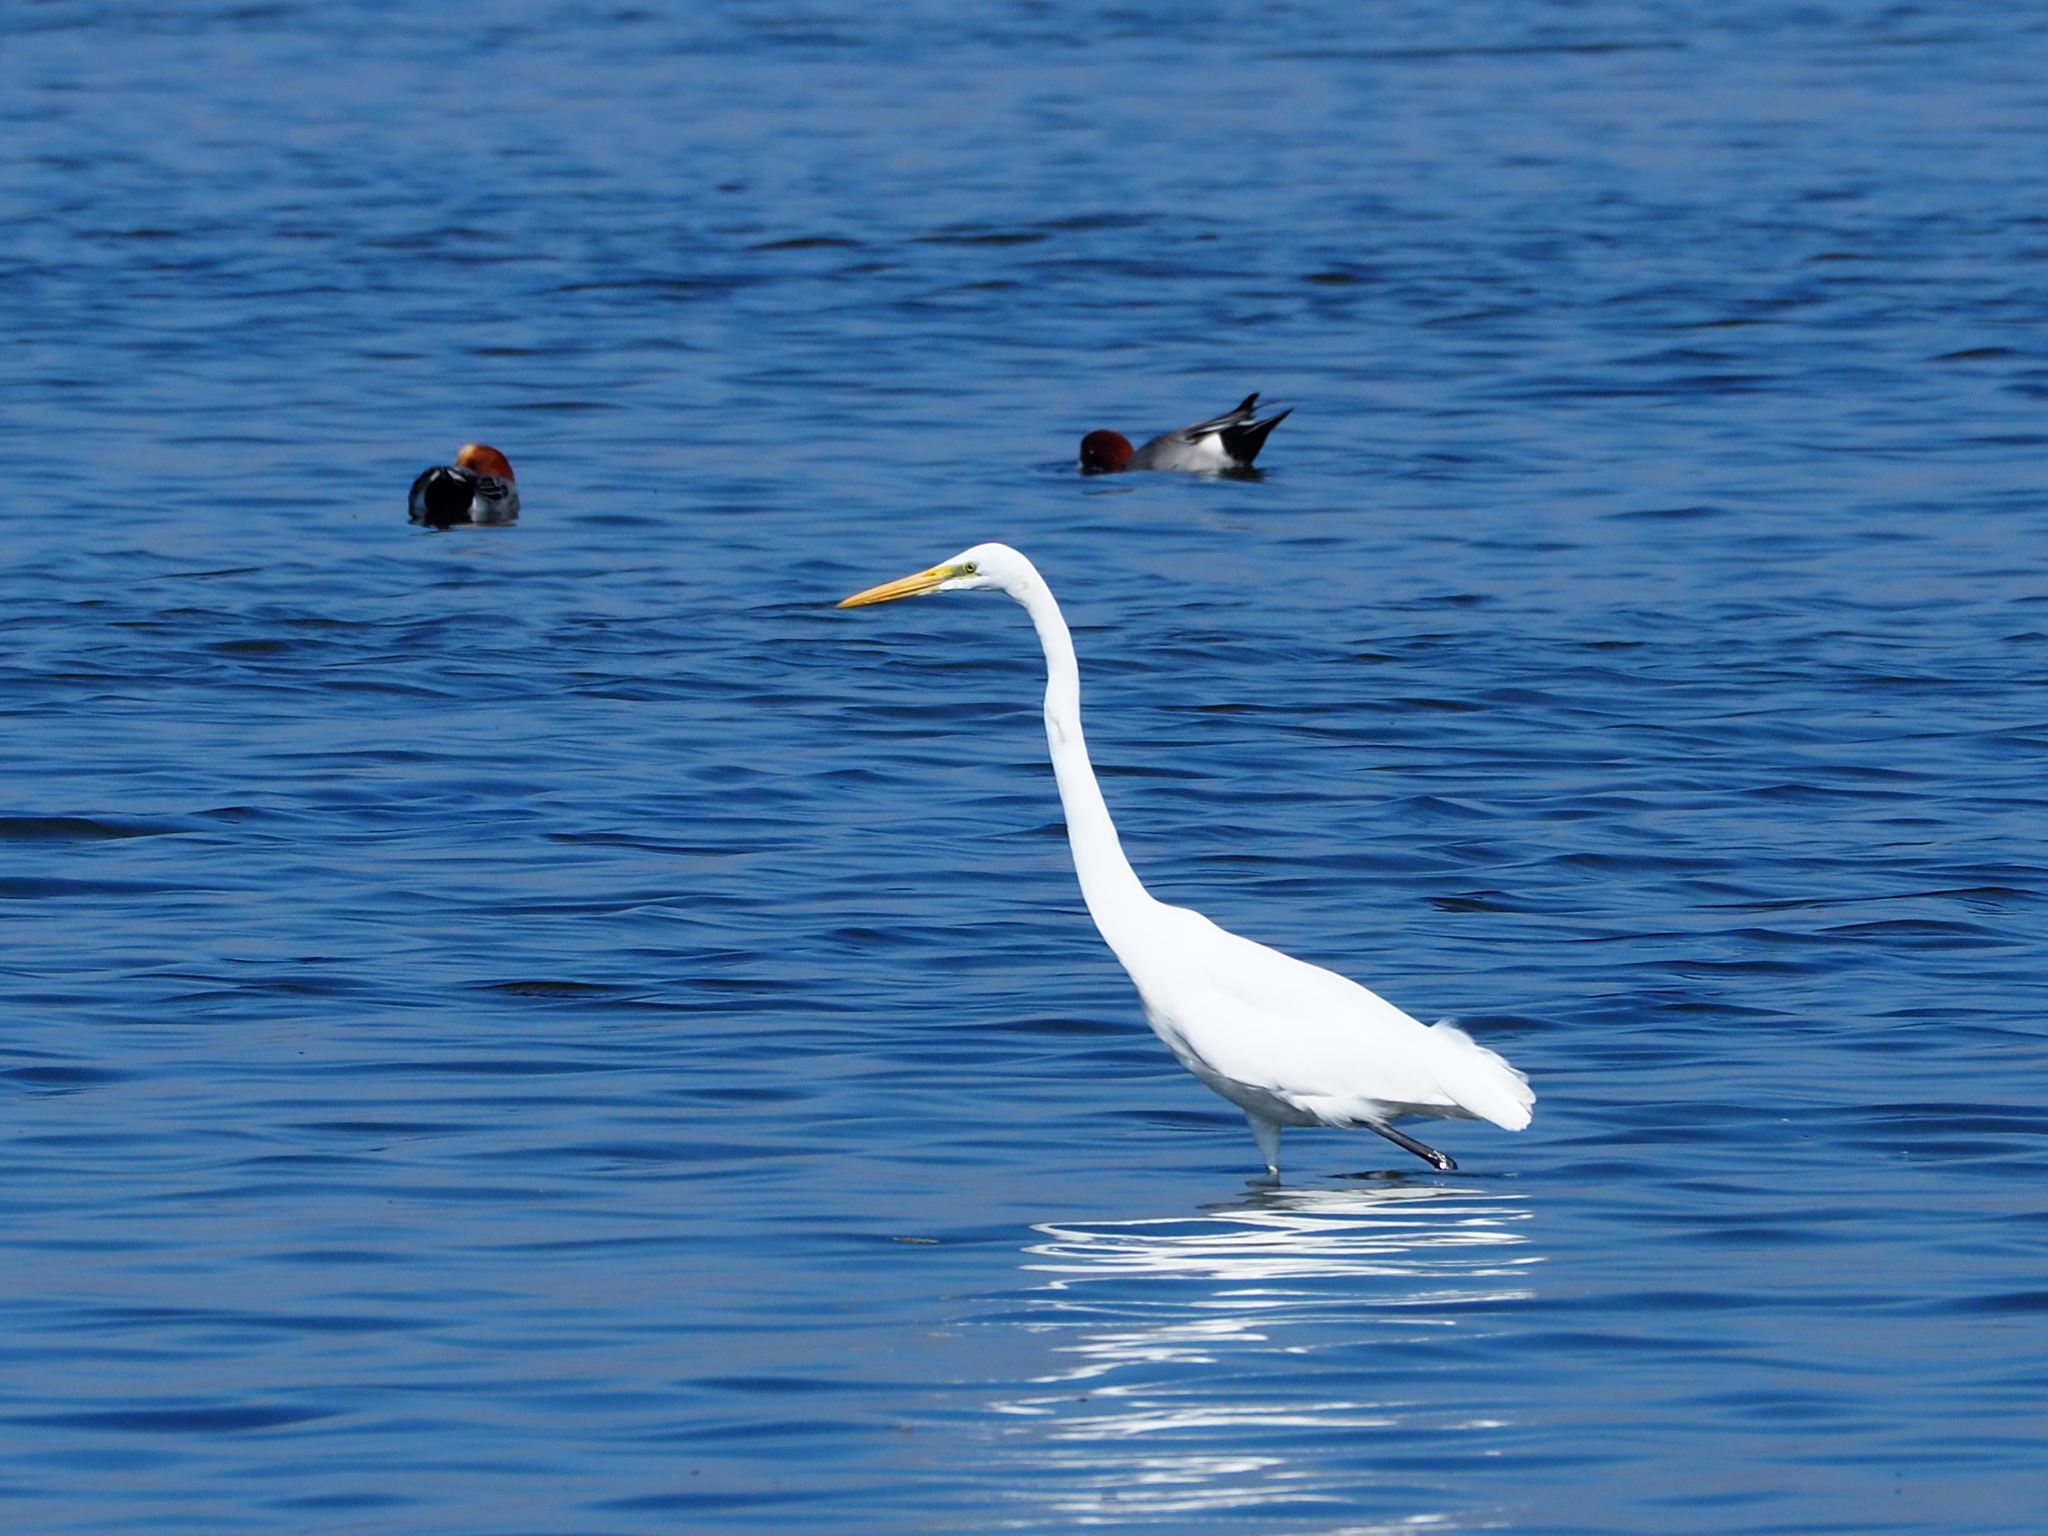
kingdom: Animalia
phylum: Chordata
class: Aves
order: Pelecaniformes
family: Ardeidae
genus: Ardea
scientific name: Ardea alba
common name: Great egret
